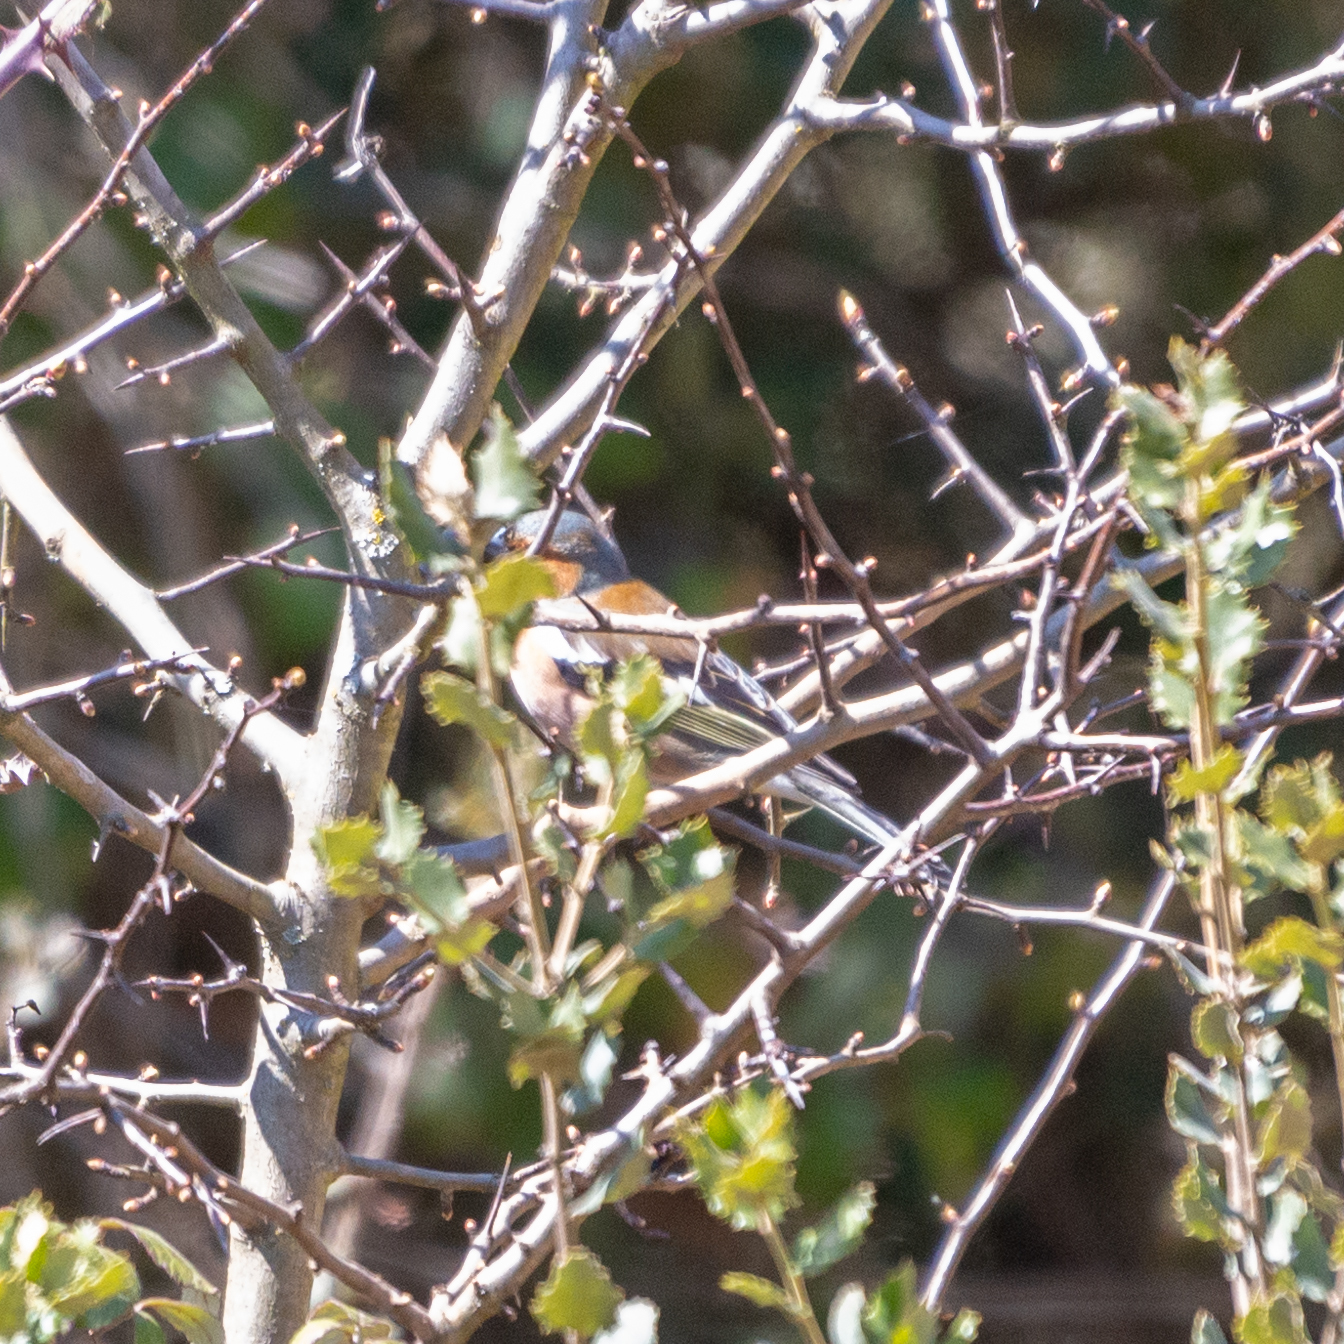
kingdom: Animalia
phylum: Chordata
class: Aves
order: Passeriformes
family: Fringillidae
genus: Fringilla
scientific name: Fringilla coelebs
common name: Common chaffinch
